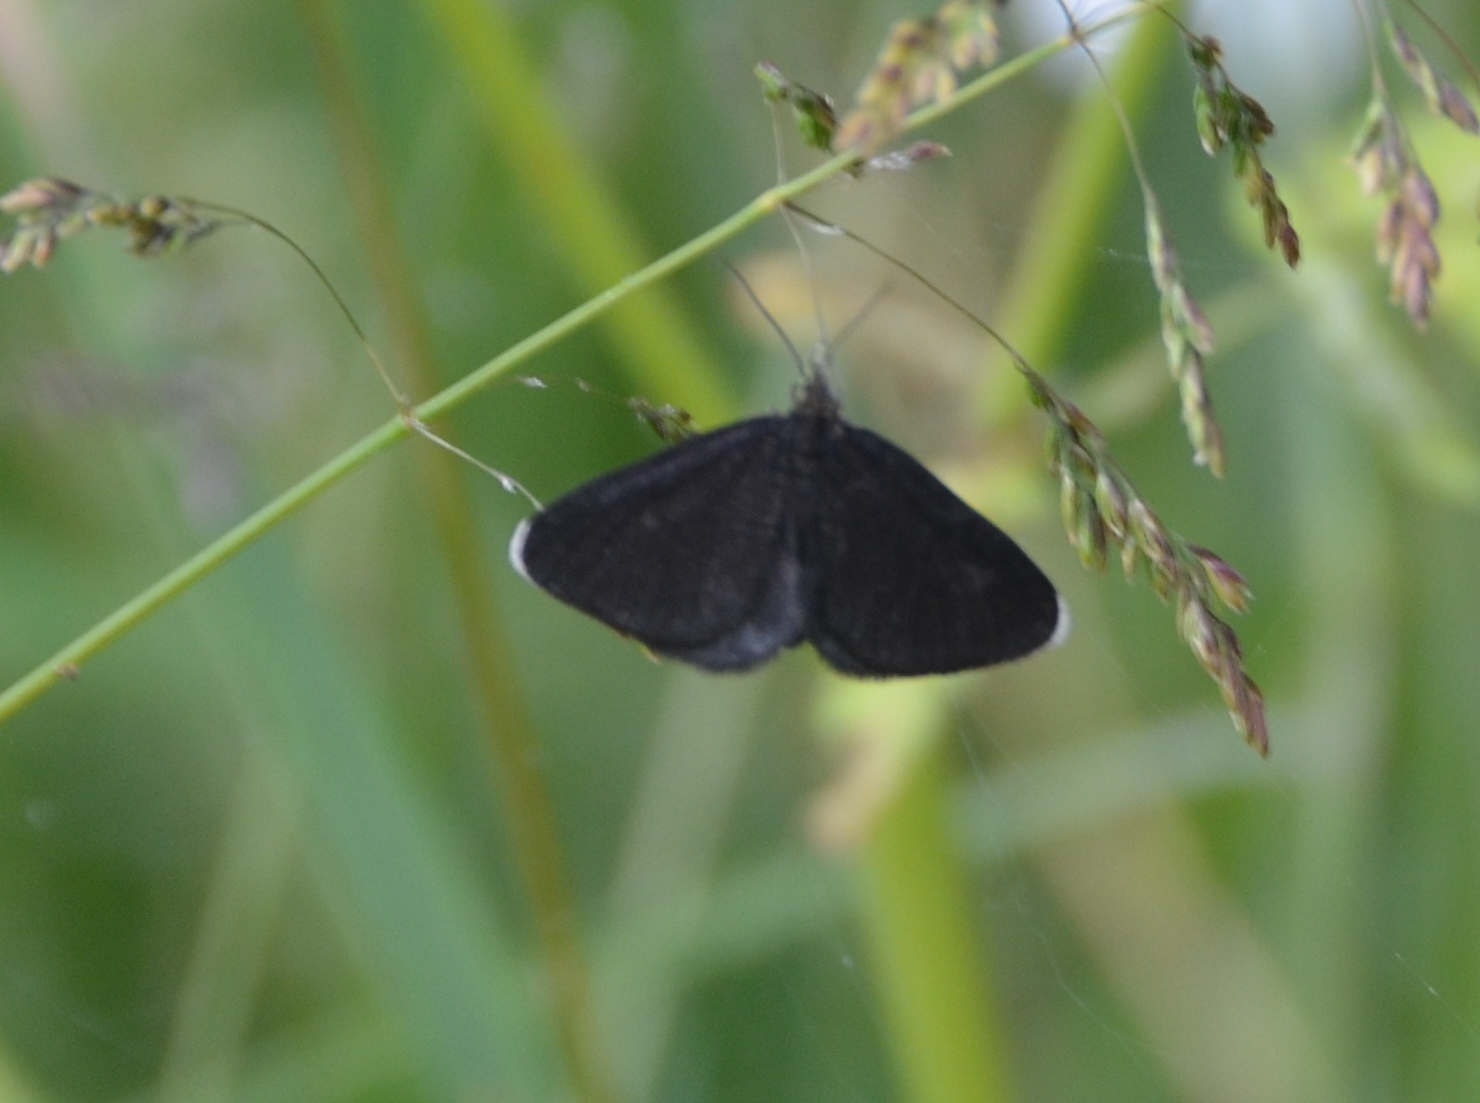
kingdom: Animalia
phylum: Arthropoda
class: Insecta
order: Lepidoptera
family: Geometridae
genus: Odezia
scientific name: Odezia atrata
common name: Chimney sweeper
